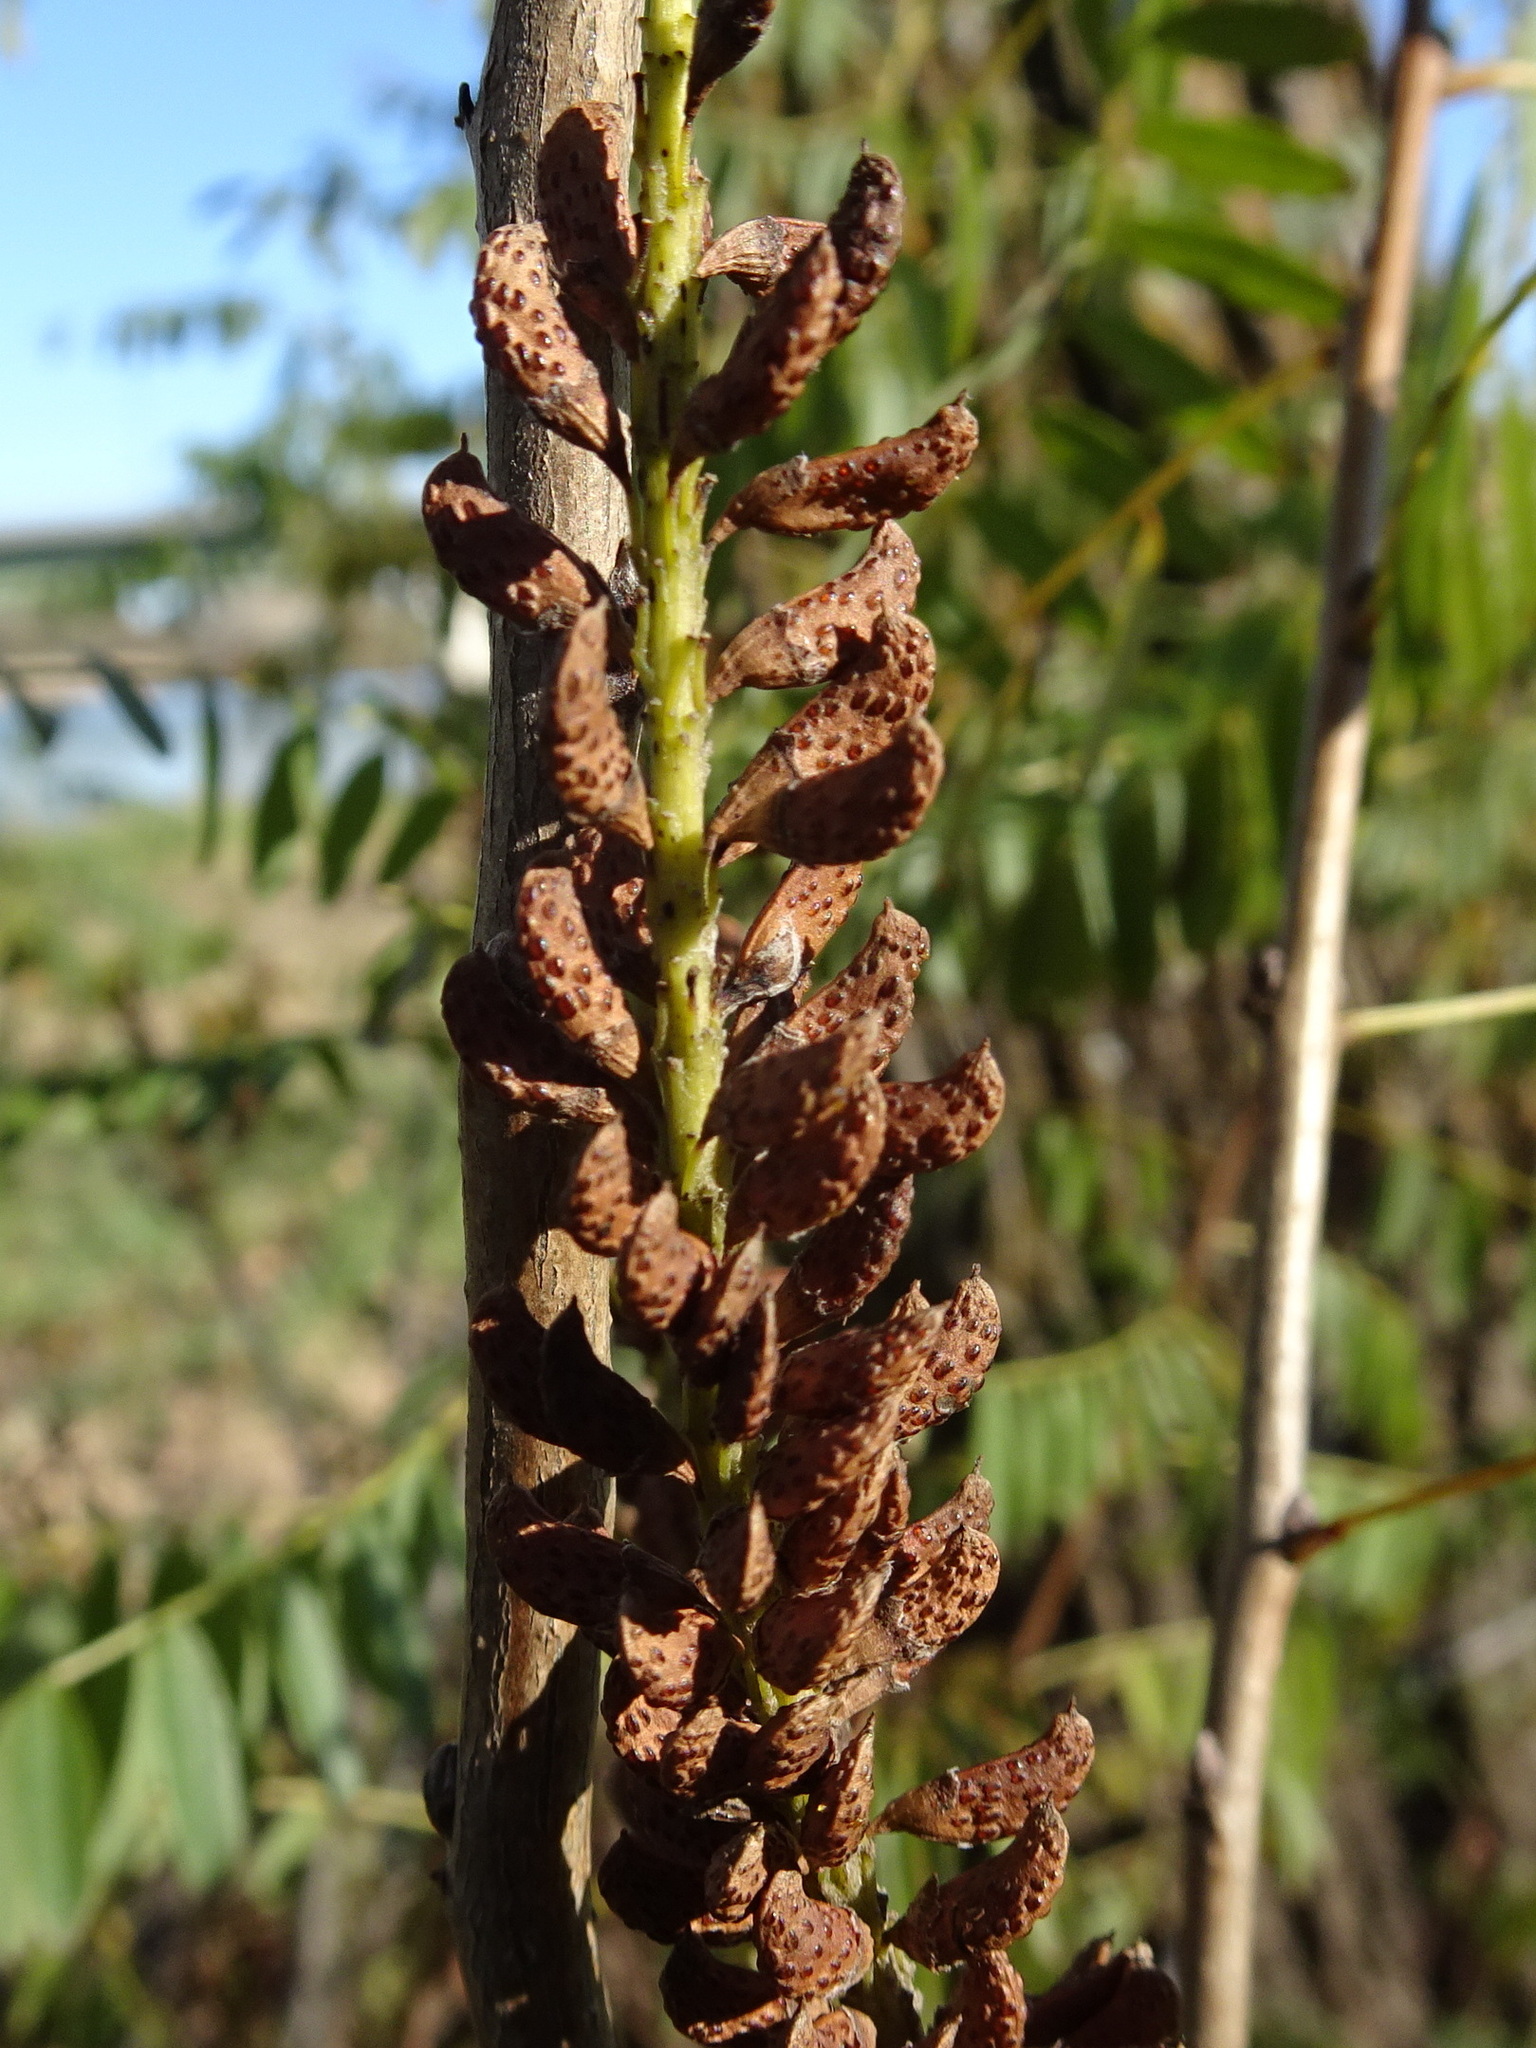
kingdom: Plantae
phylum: Tracheophyta
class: Magnoliopsida
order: Fabales
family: Fabaceae
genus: Amorpha
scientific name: Amorpha fruticosa
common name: False indigo
